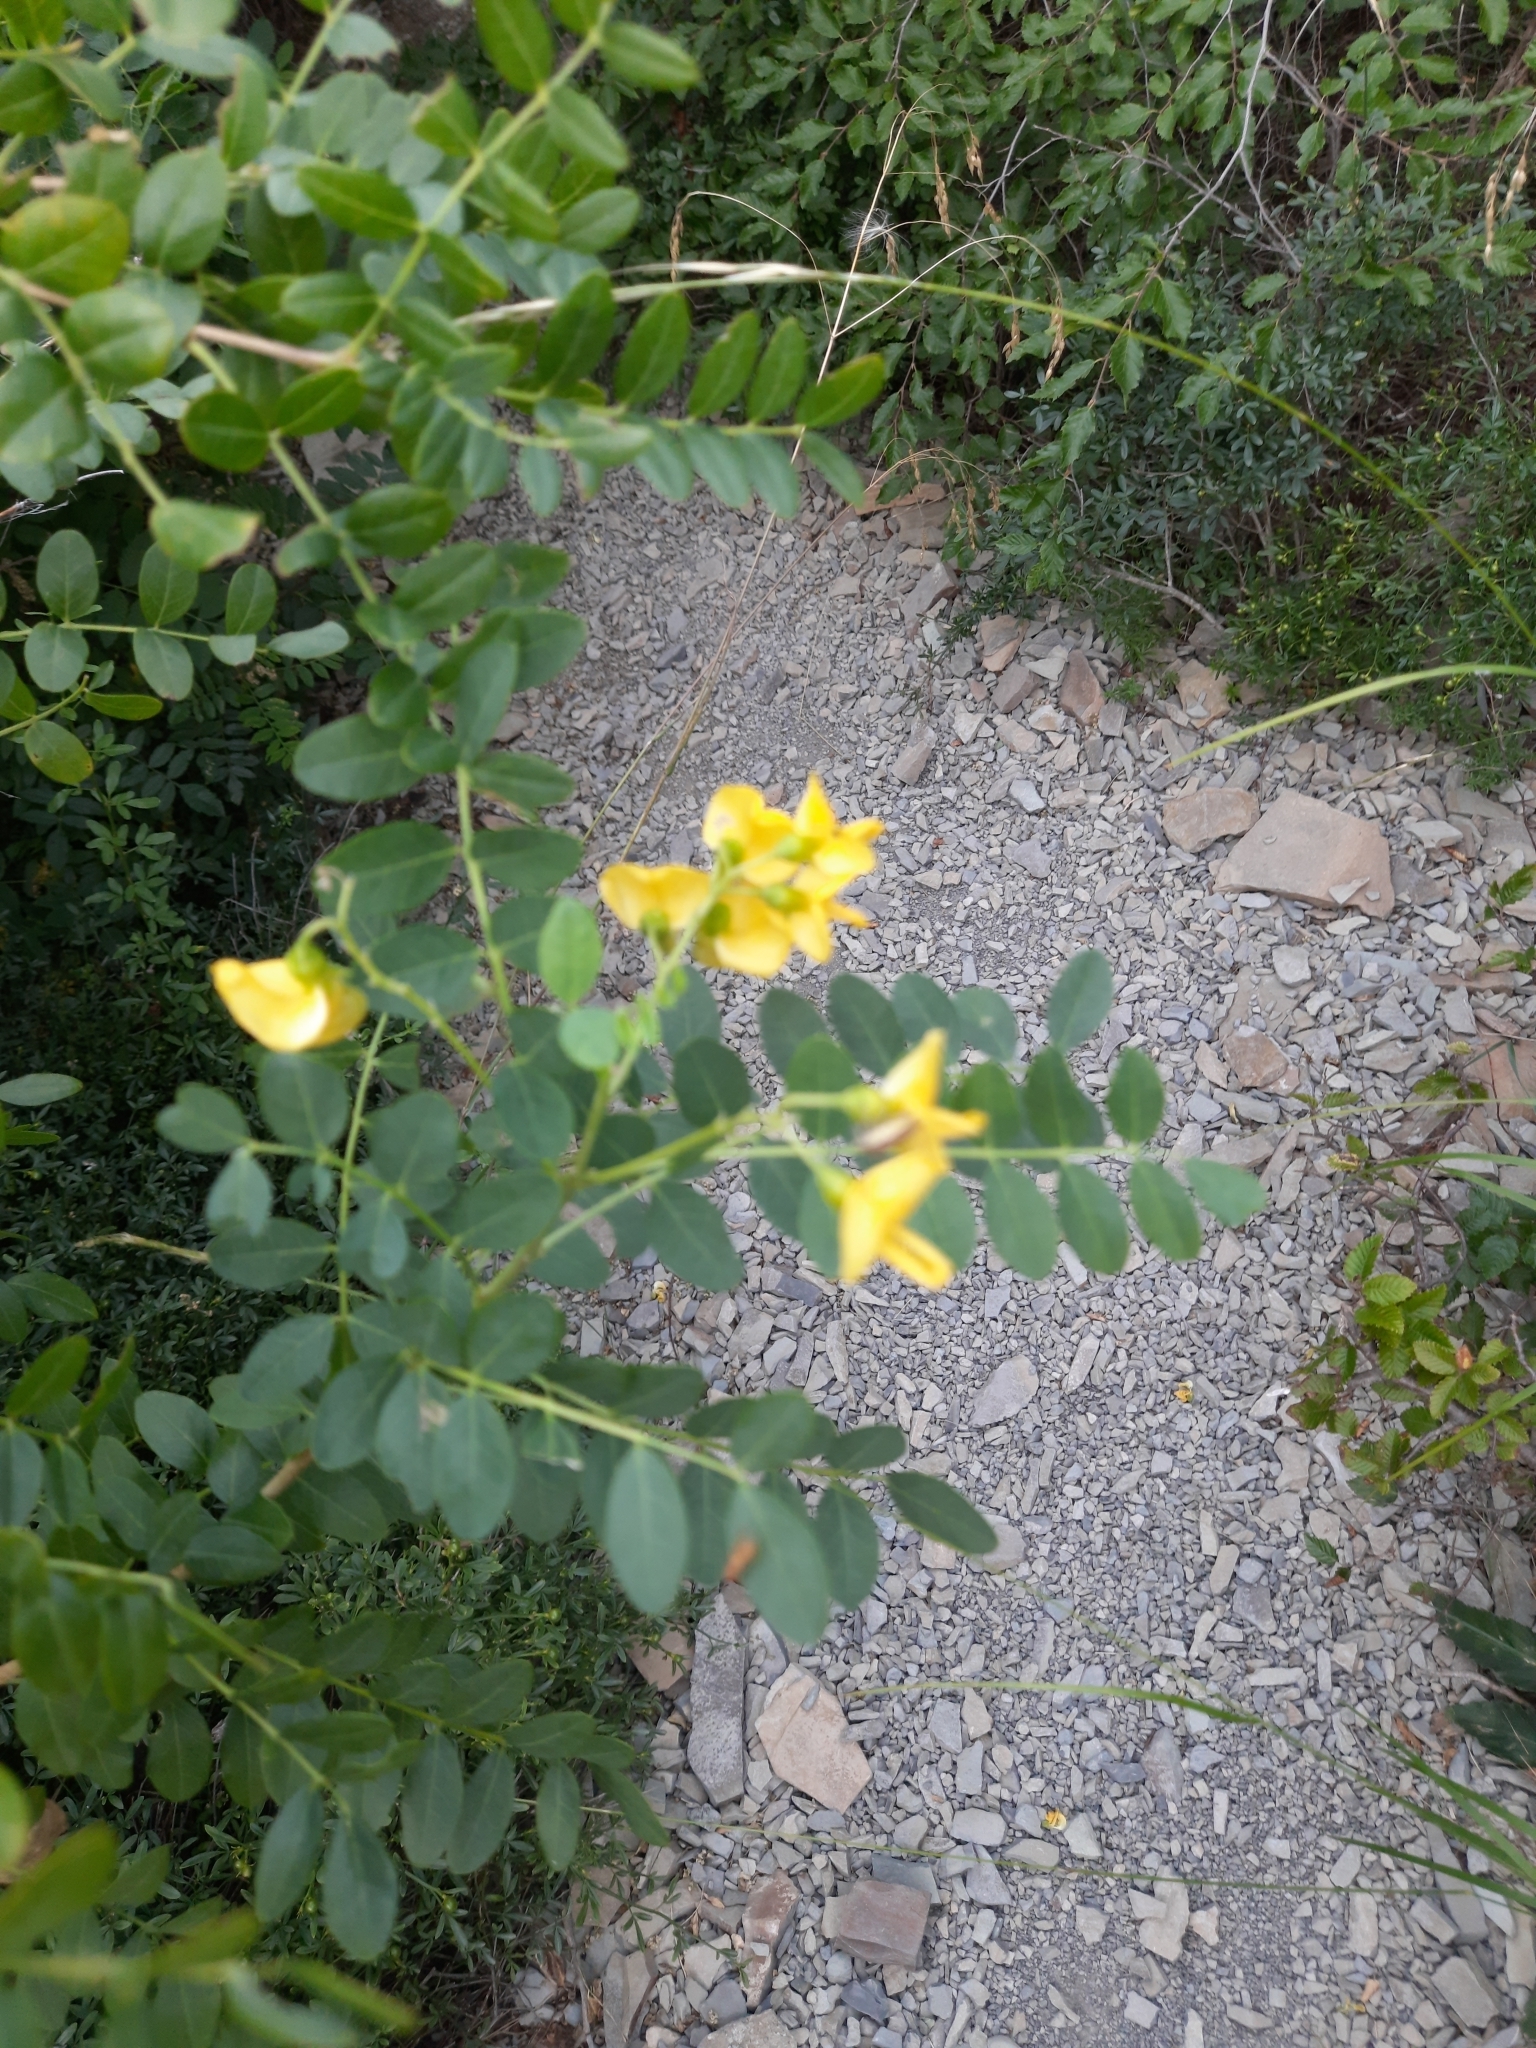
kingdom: Plantae
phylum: Tracheophyta
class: Magnoliopsida
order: Fabales
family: Fabaceae
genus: Colutea
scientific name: Colutea cilicica
